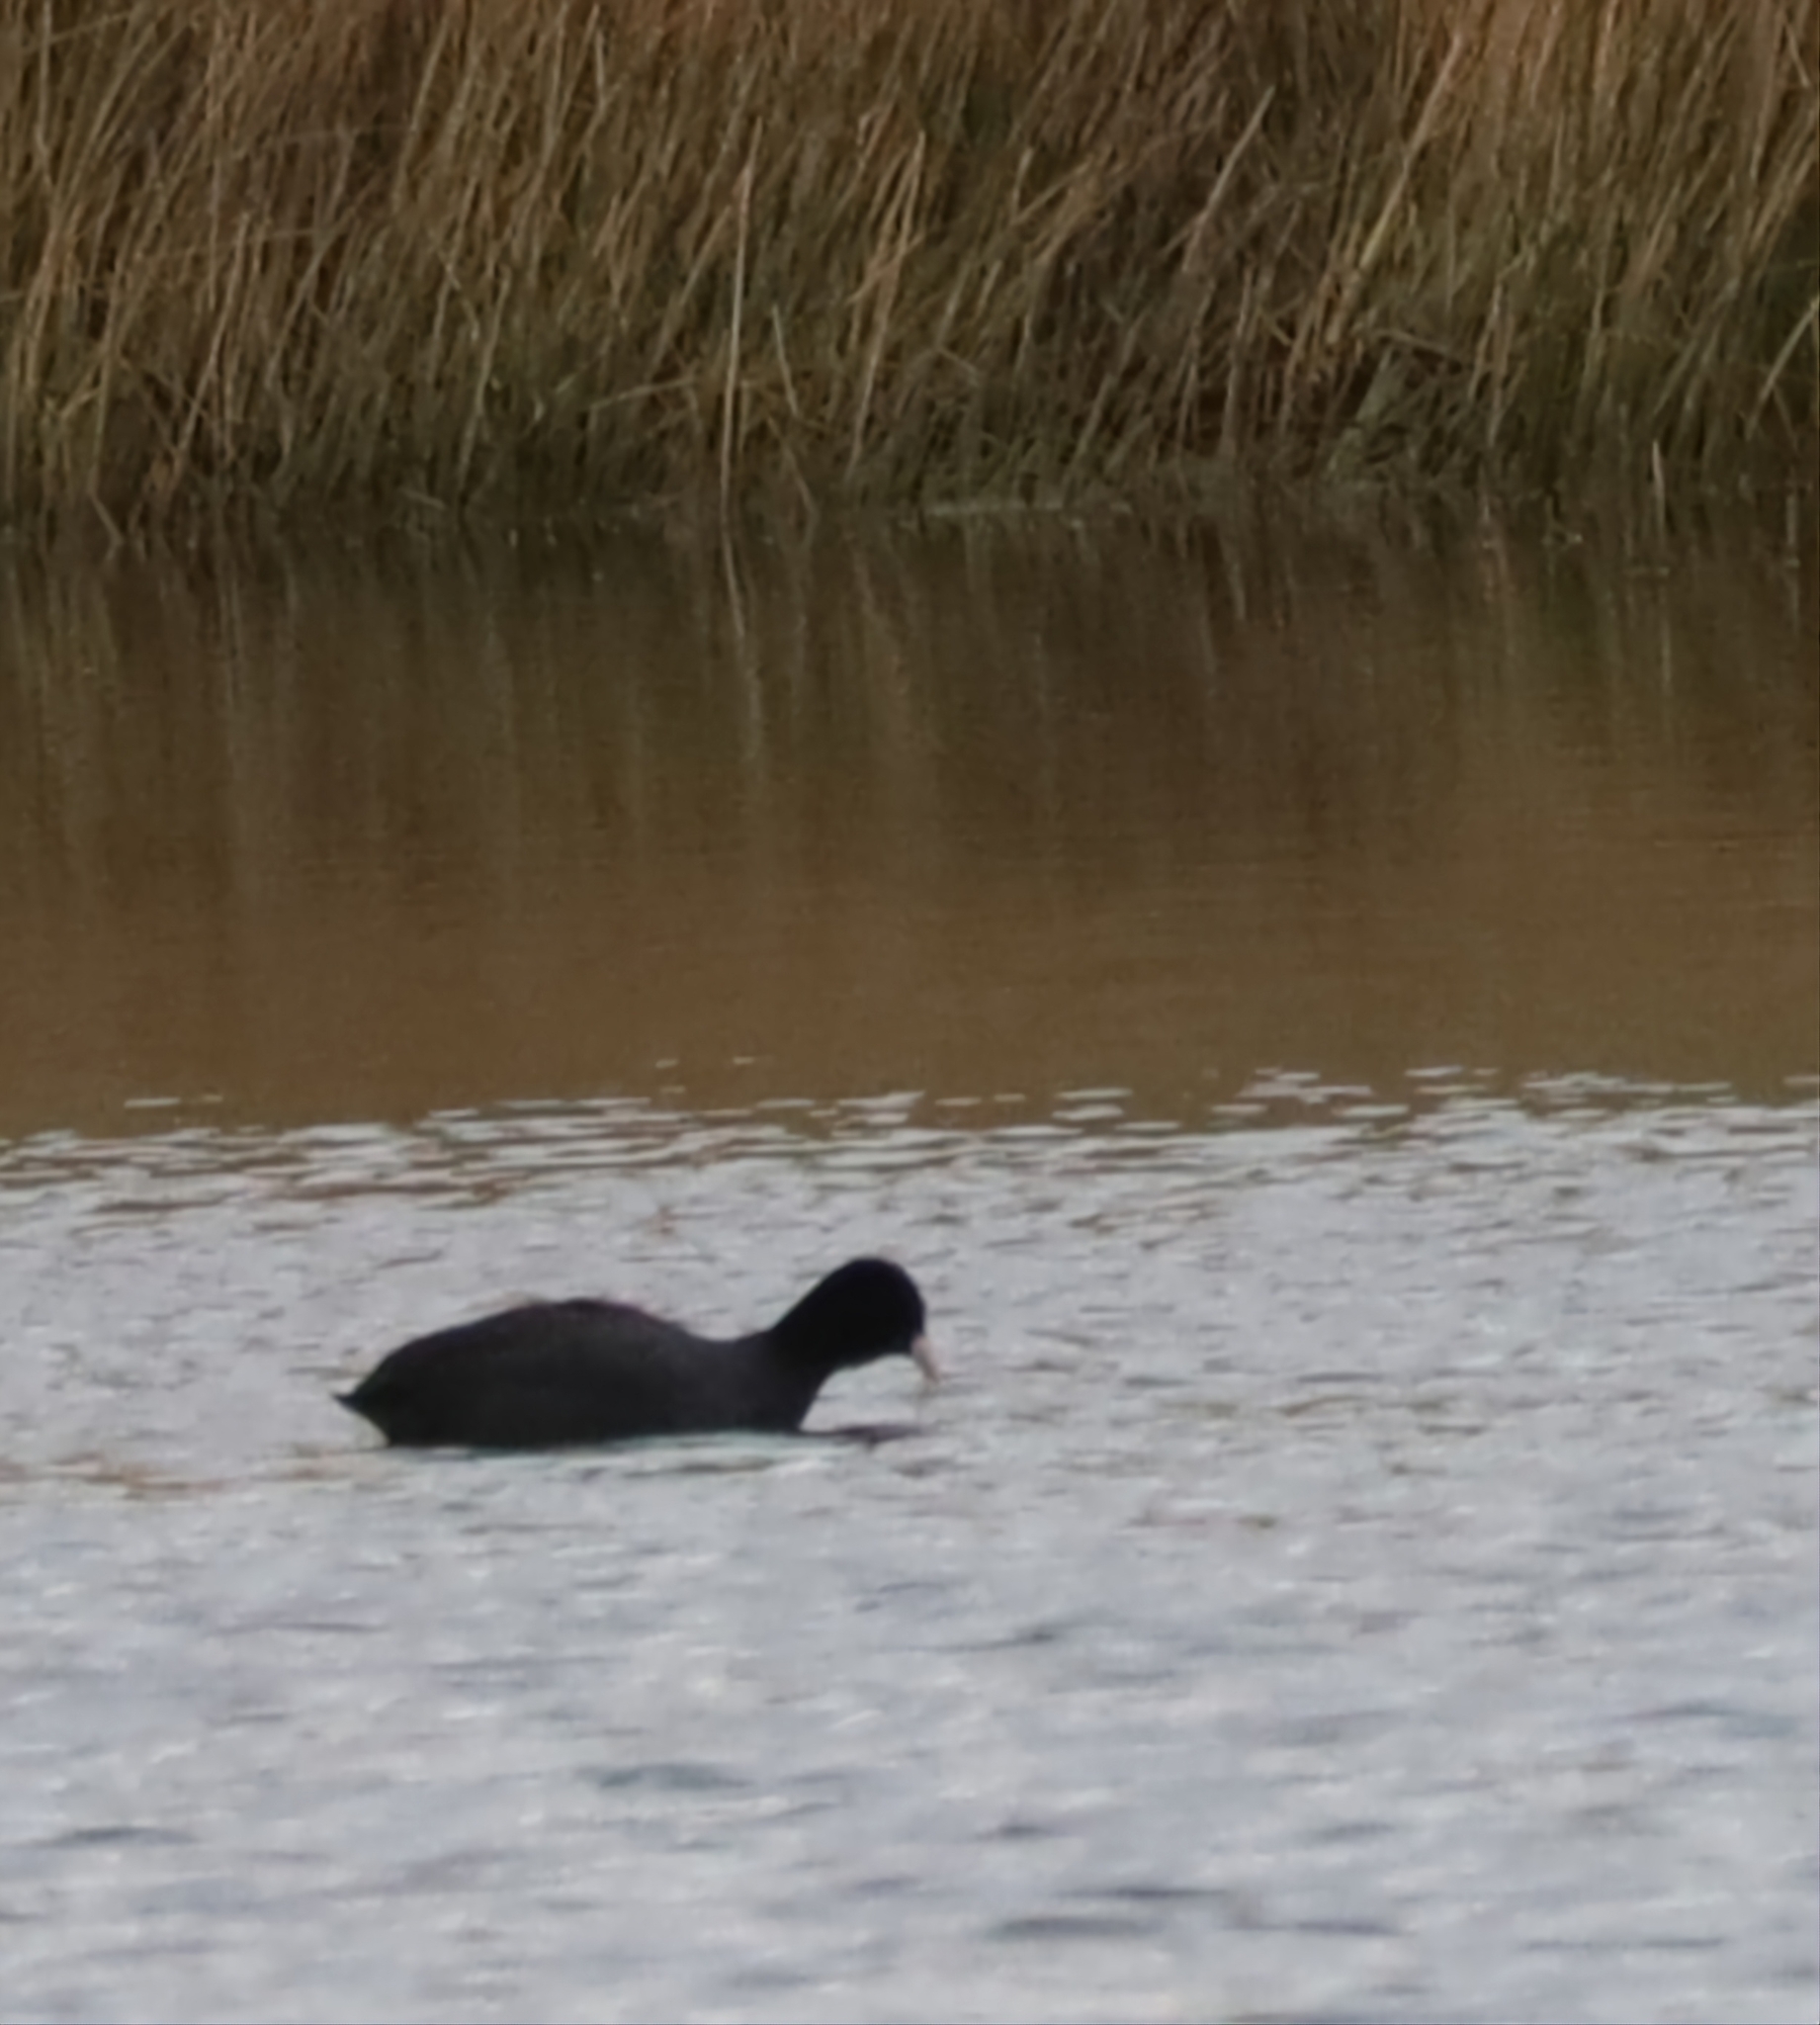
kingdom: Animalia
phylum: Chordata
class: Aves
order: Gruiformes
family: Rallidae
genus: Fulica
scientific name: Fulica atra
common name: Eurasian coot
